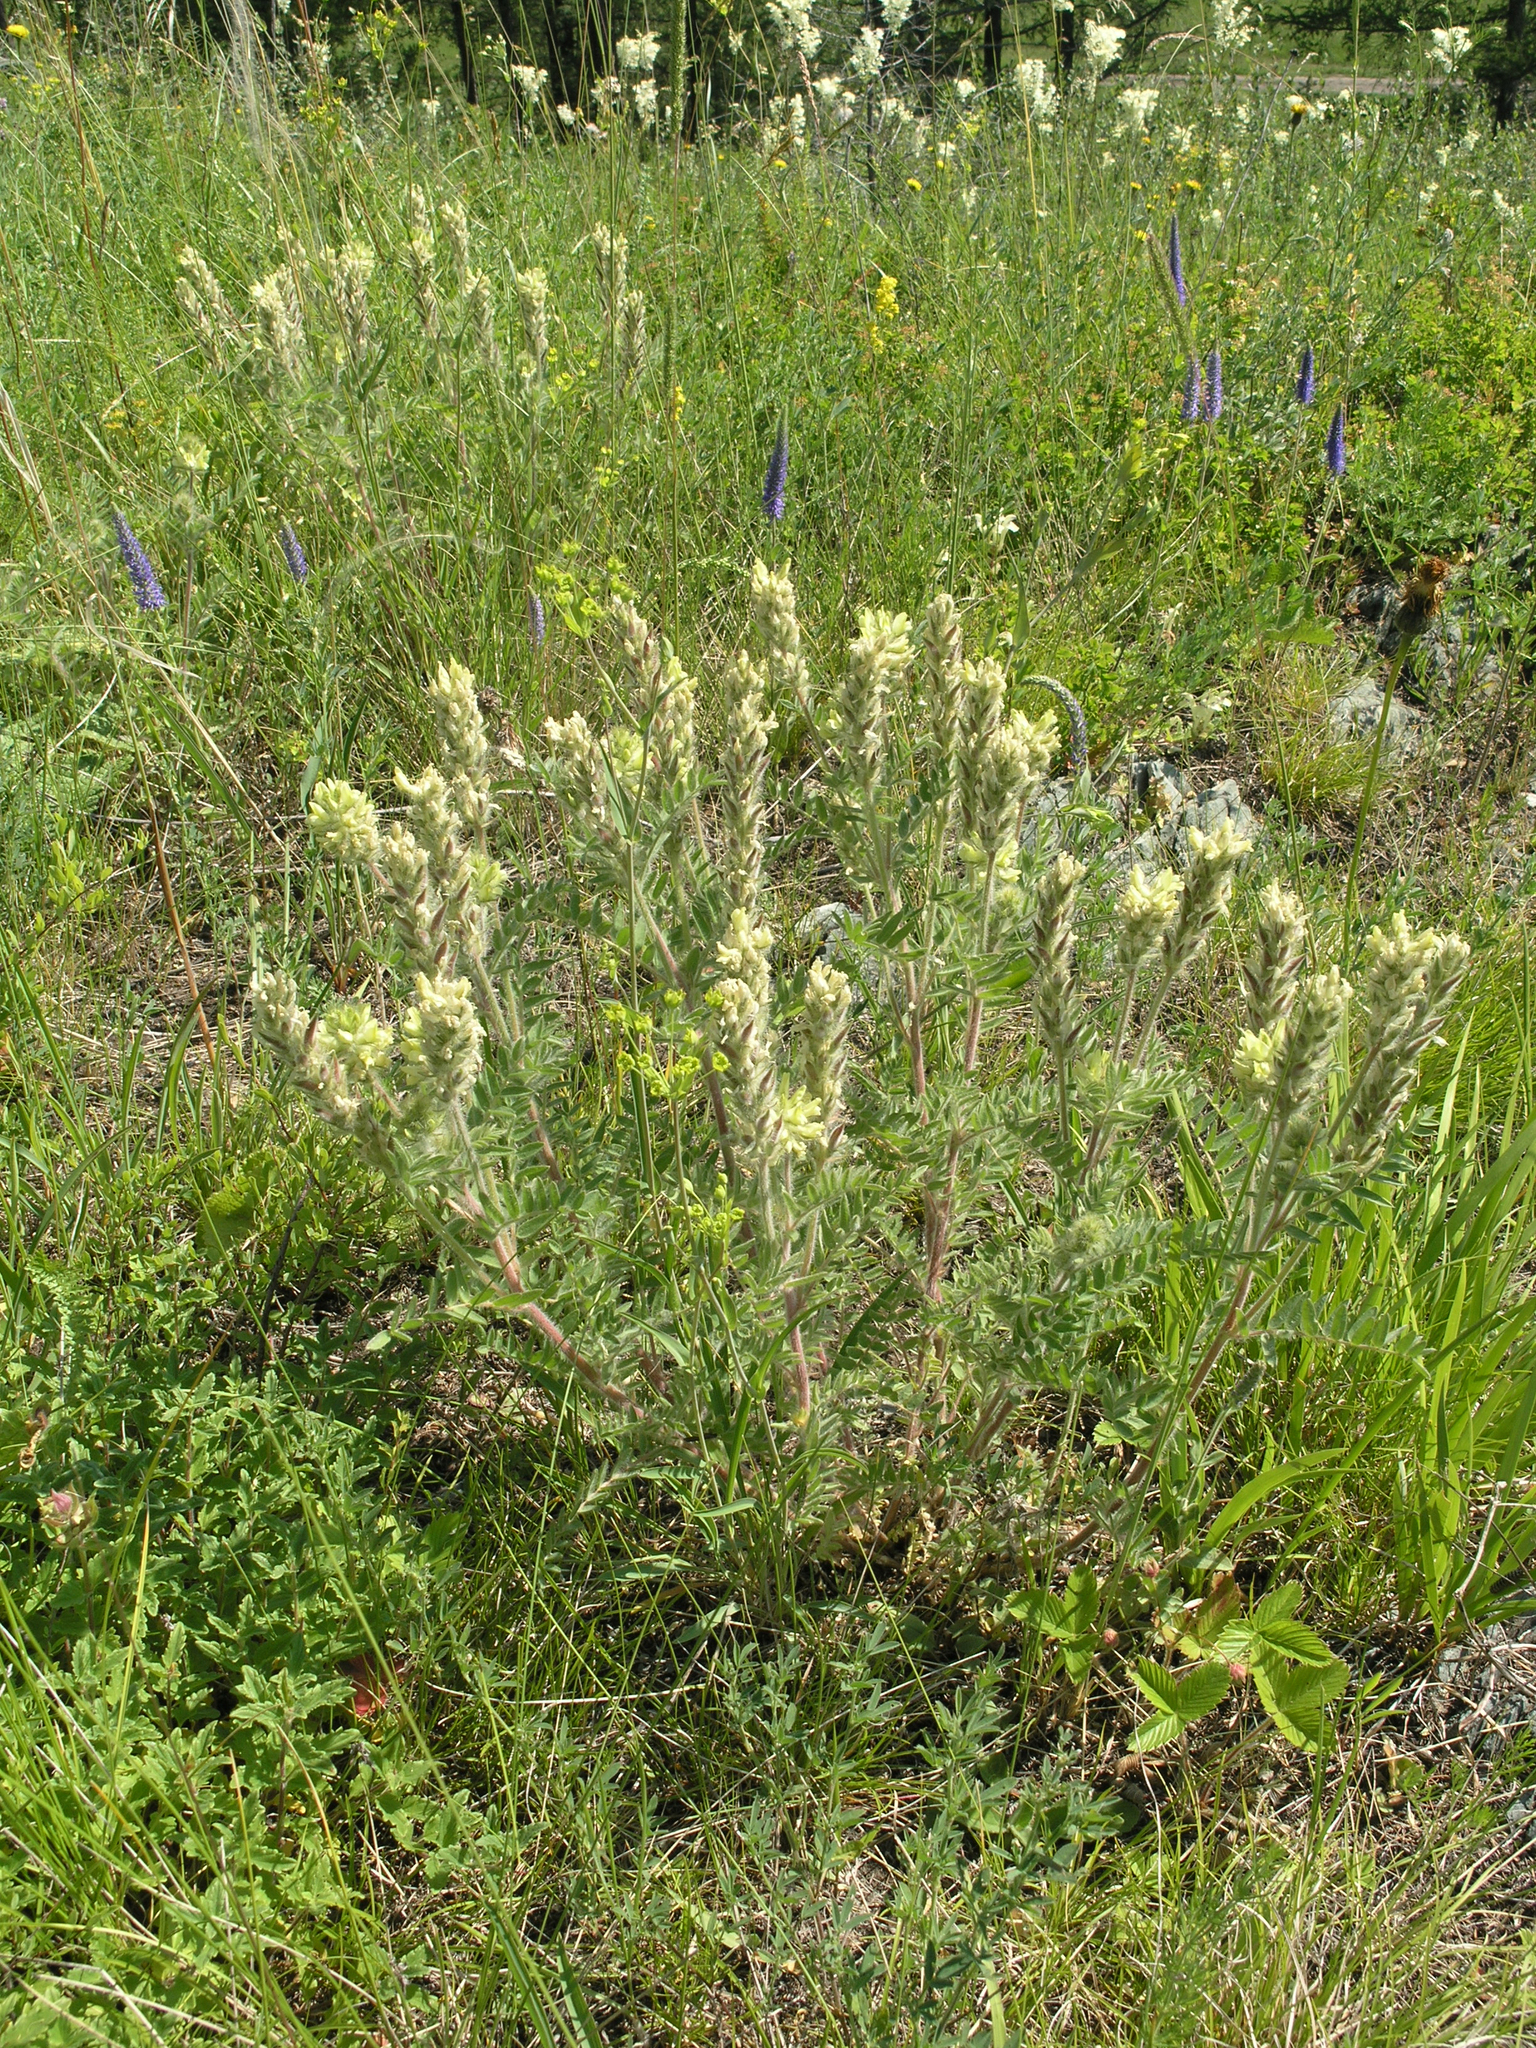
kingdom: Plantae
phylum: Tracheophyta
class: Magnoliopsida
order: Fabales
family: Fabaceae
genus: Oxytropis
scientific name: Oxytropis pilosa
